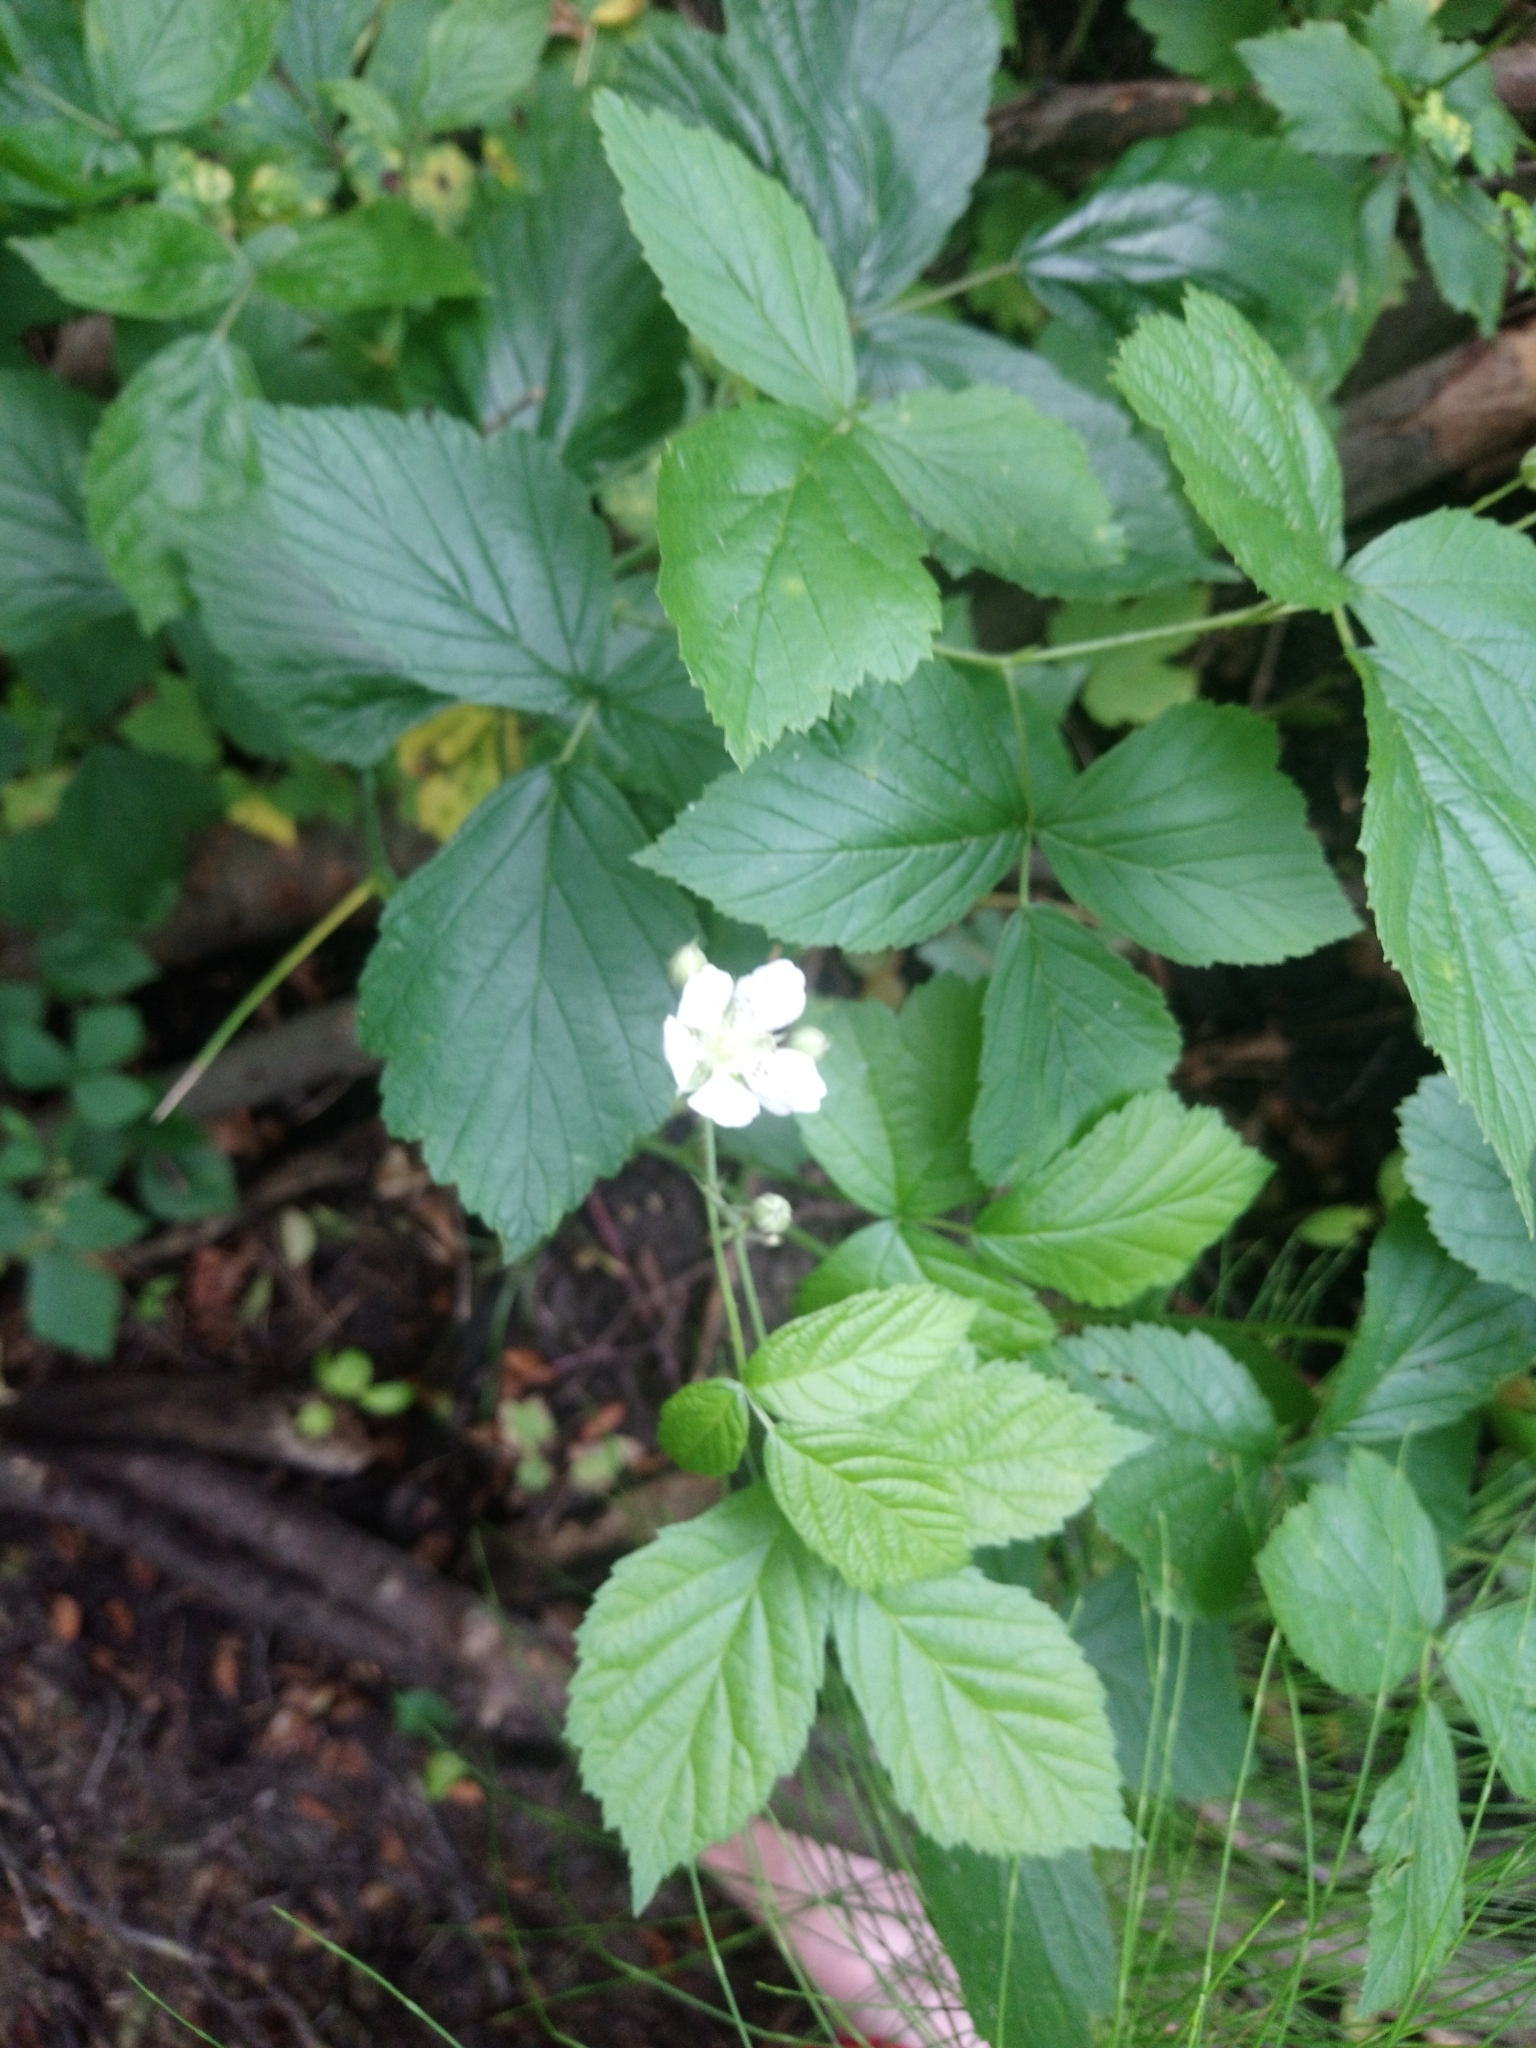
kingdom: Plantae
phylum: Tracheophyta
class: Magnoliopsida
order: Rosales
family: Rosaceae
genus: Rubus
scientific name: Rubus caesius
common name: Dewberry
